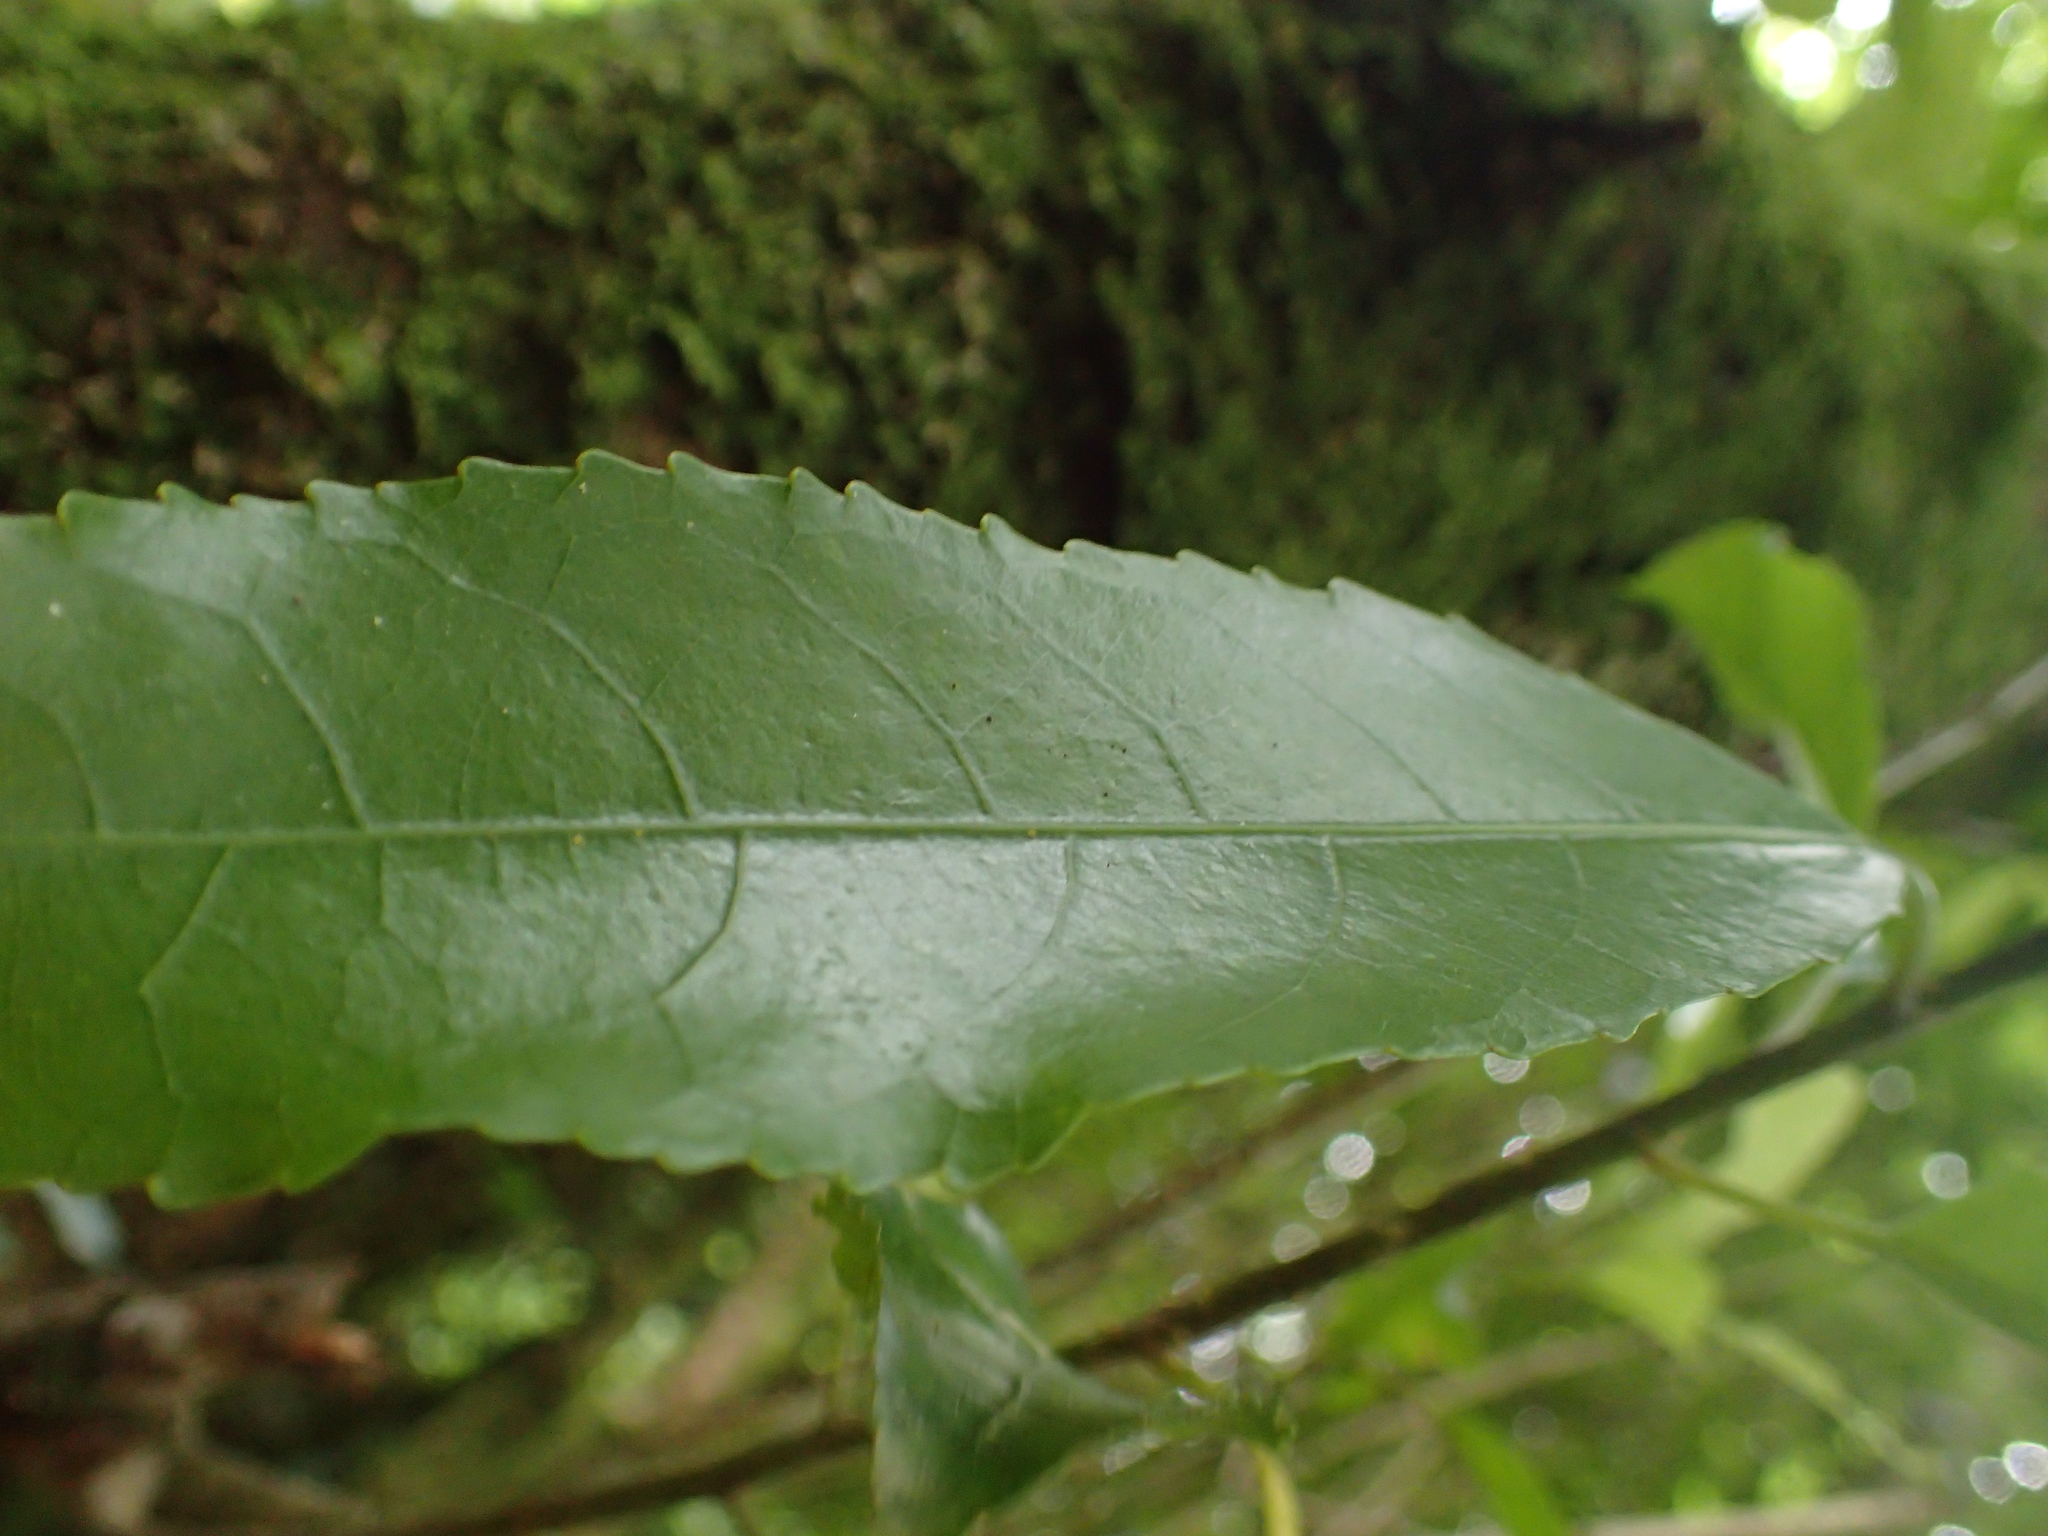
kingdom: Plantae
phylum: Tracheophyta
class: Magnoliopsida
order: Malpighiales
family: Violaceae
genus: Melicytus
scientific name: Melicytus ramiflorus
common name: Mahoe
